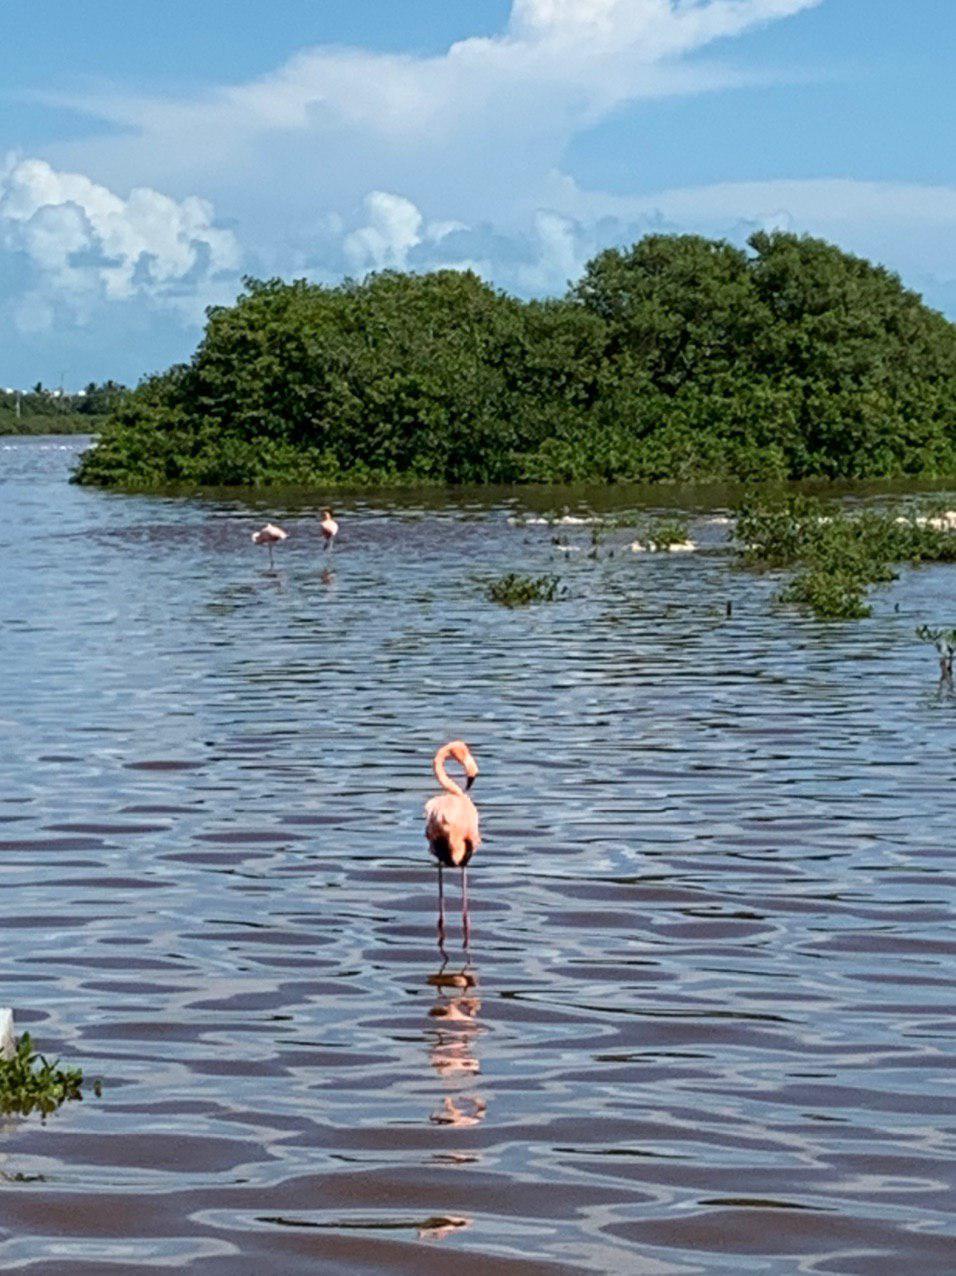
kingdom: Animalia
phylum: Chordata
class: Aves
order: Phoenicopteriformes
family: Phoenicopteridae
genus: Phoenicopterus
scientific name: Phoenicopterus ruber
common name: American flamingo
